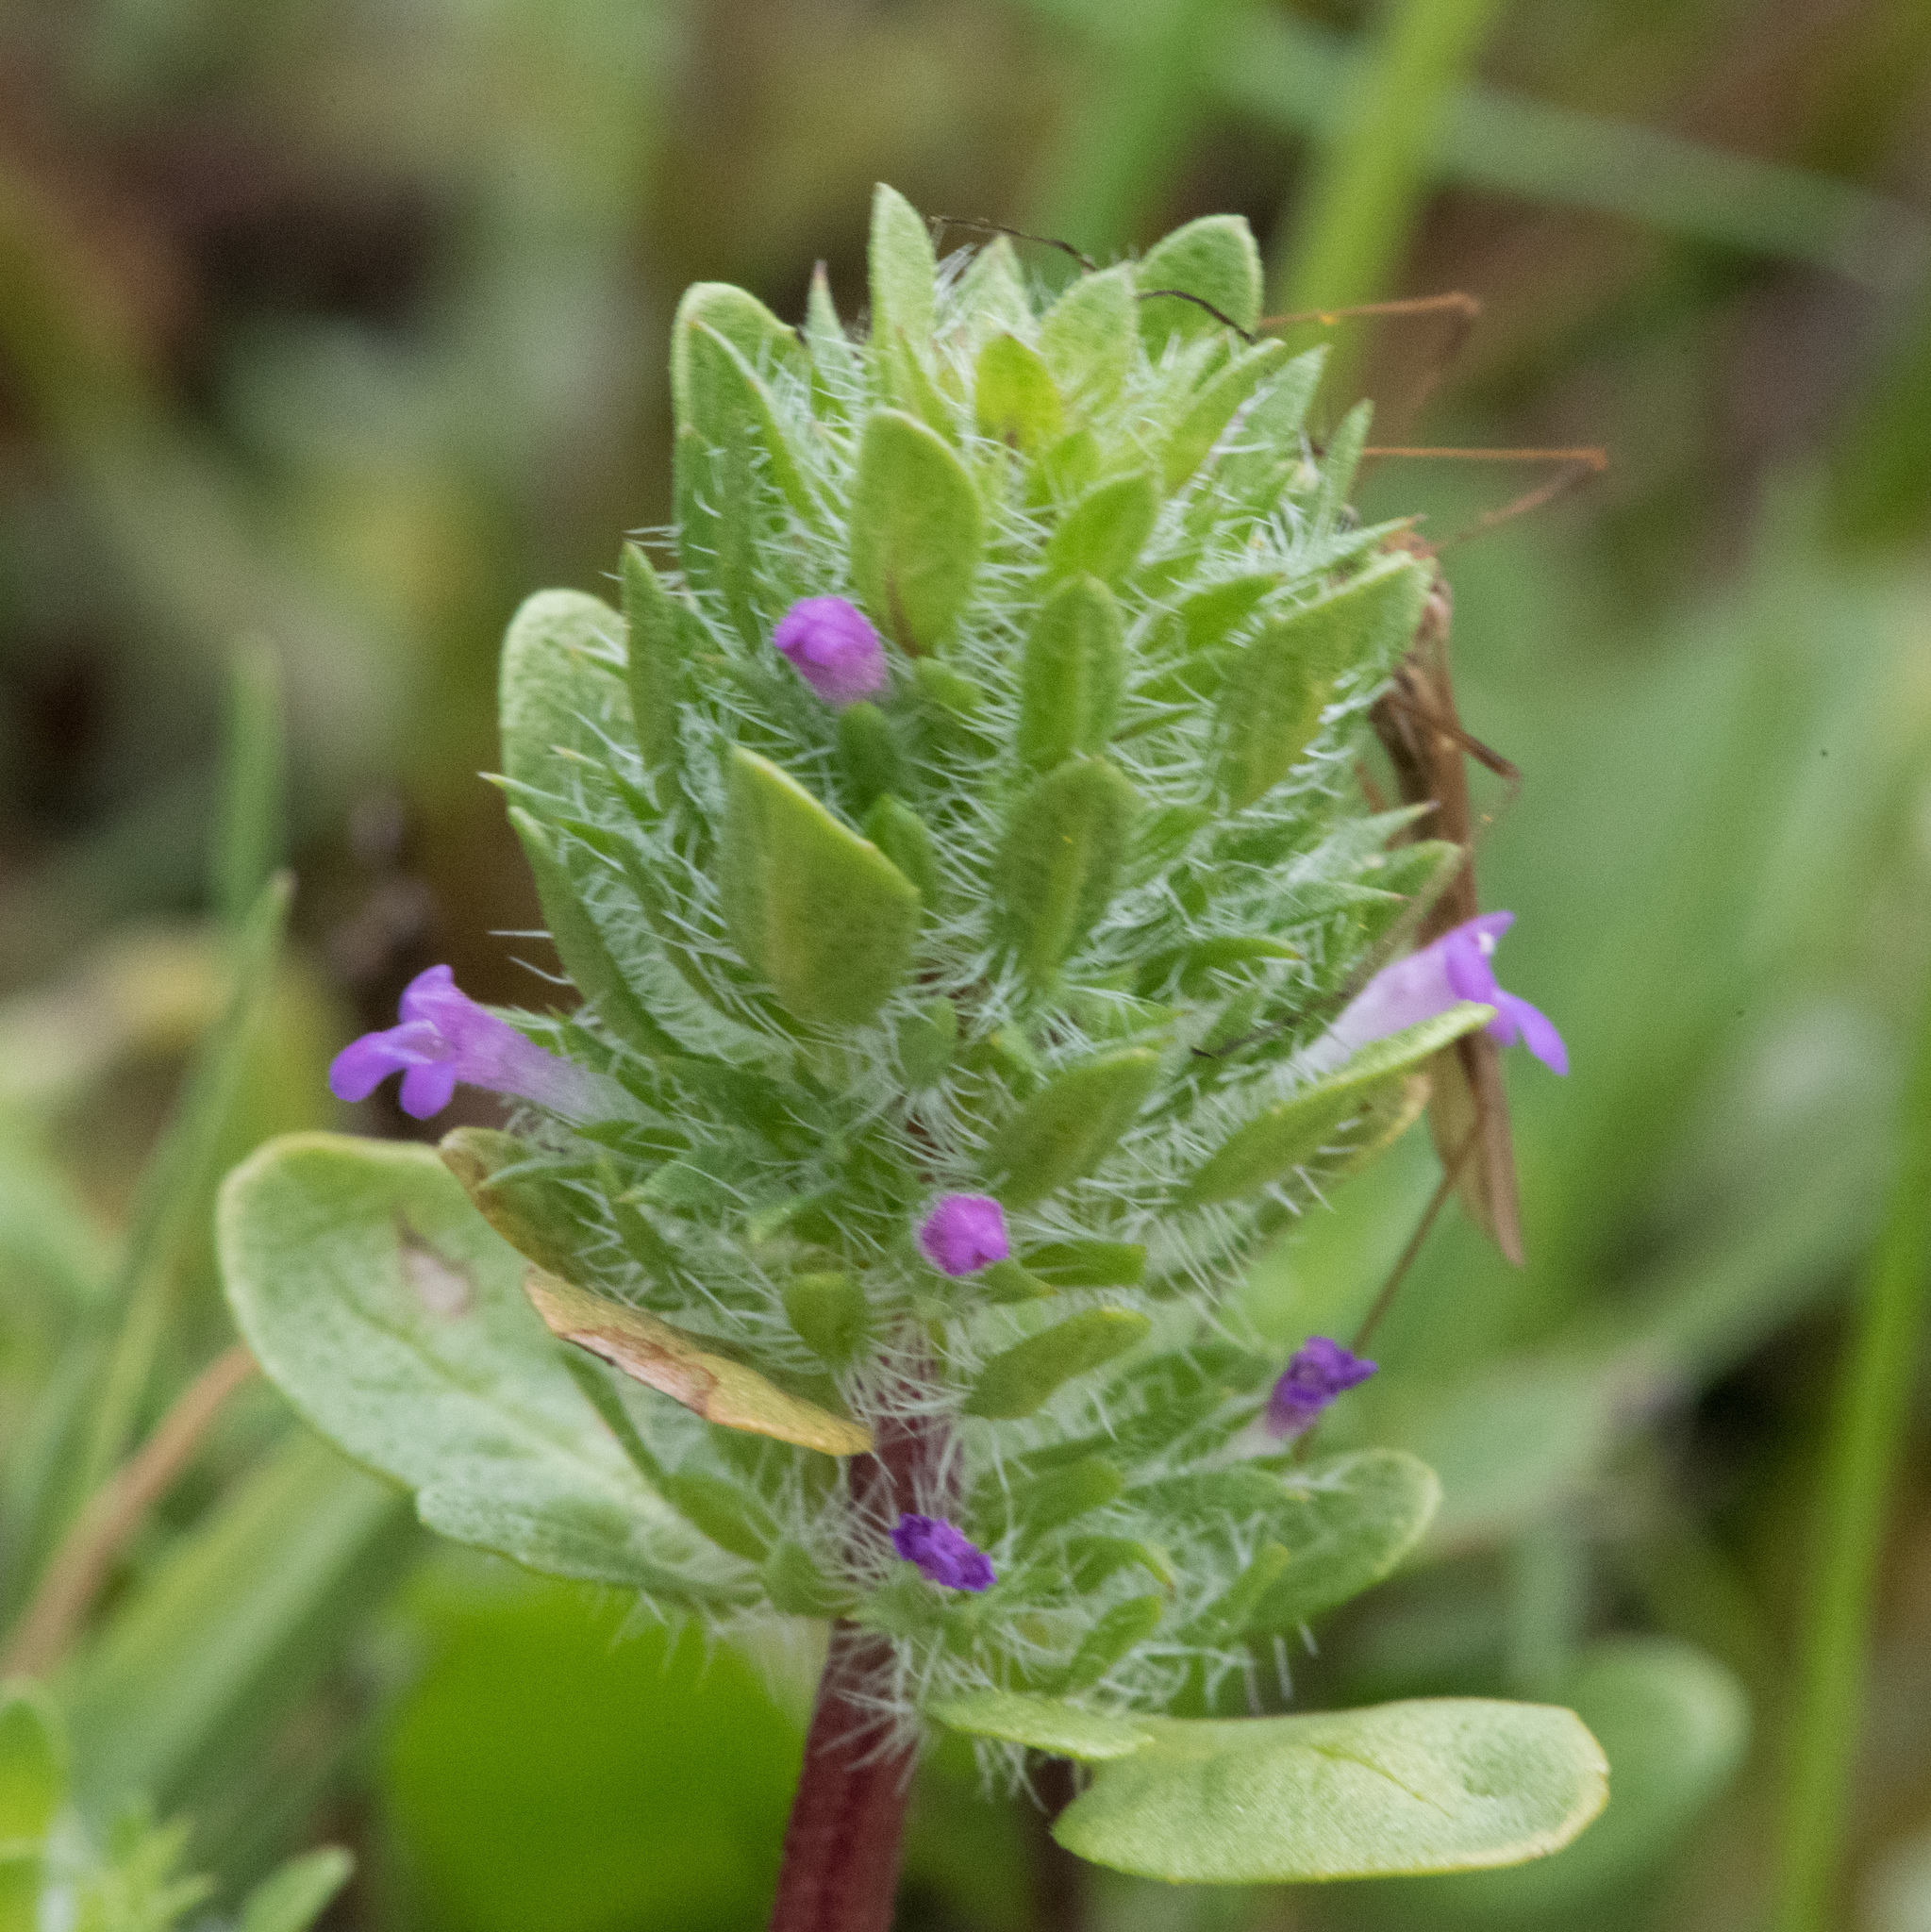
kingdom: Plantae
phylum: Tracheophyta
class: Magnoliopsida
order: Lamiales
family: Lamiaceae
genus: Pogogyne
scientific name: Pogogyne zizyphoroides
